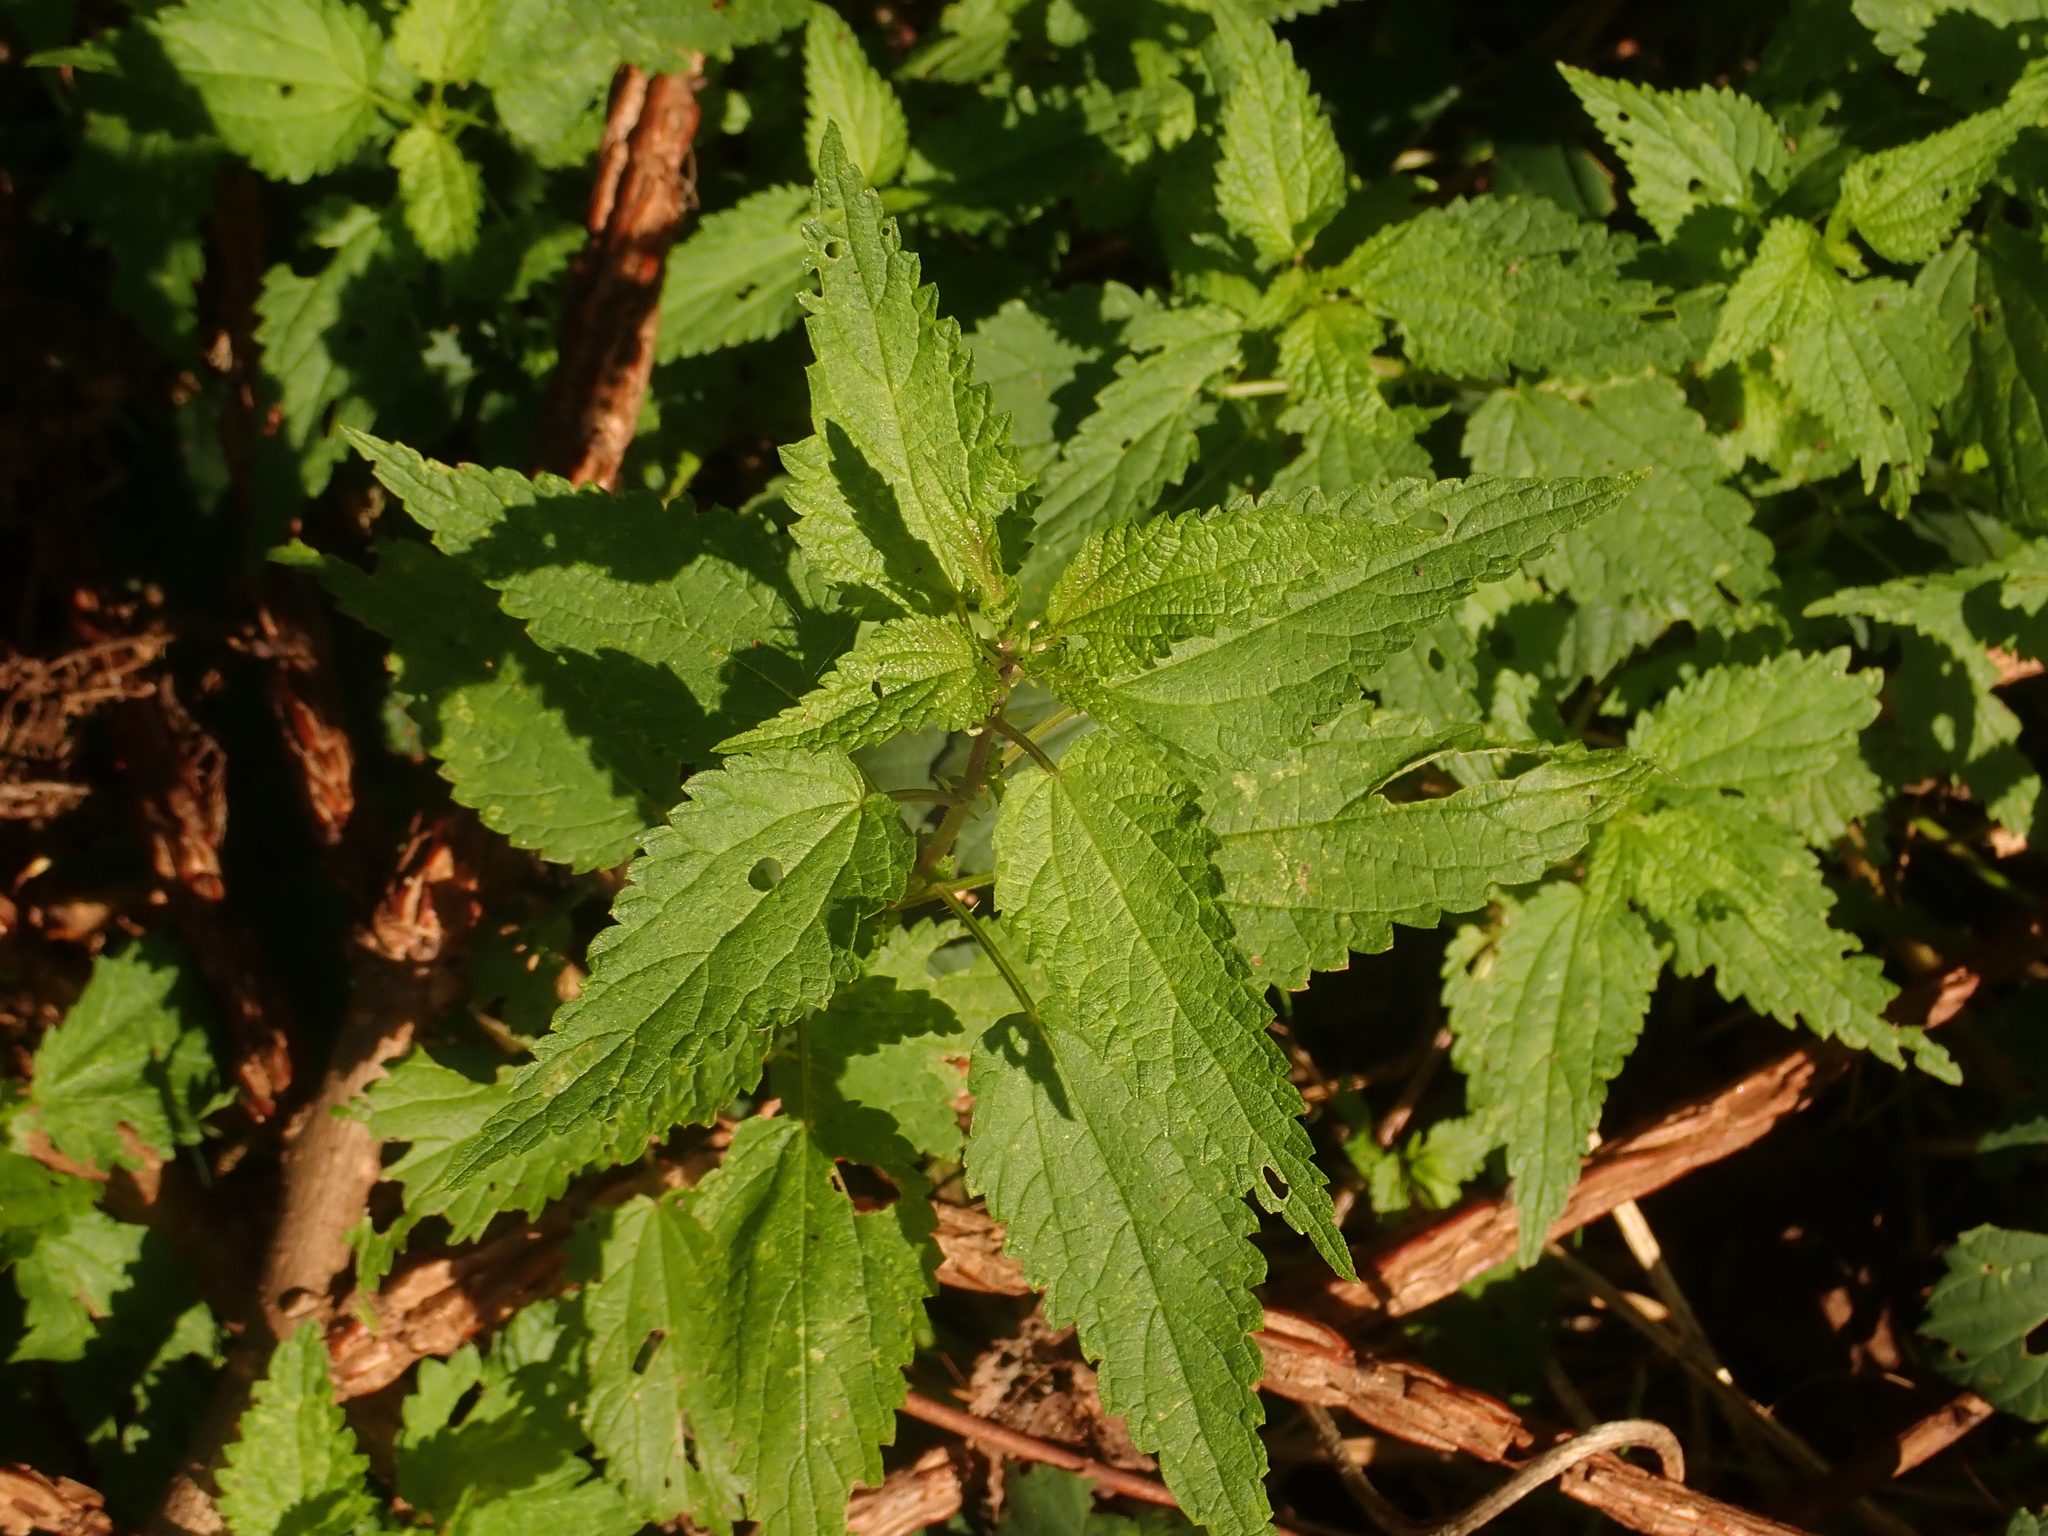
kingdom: Plantae
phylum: Tracheophyta
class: Magnoliopsida
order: Rosales
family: Urticaceae
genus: Urtica
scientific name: Urtica dioica
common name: Common nettle
